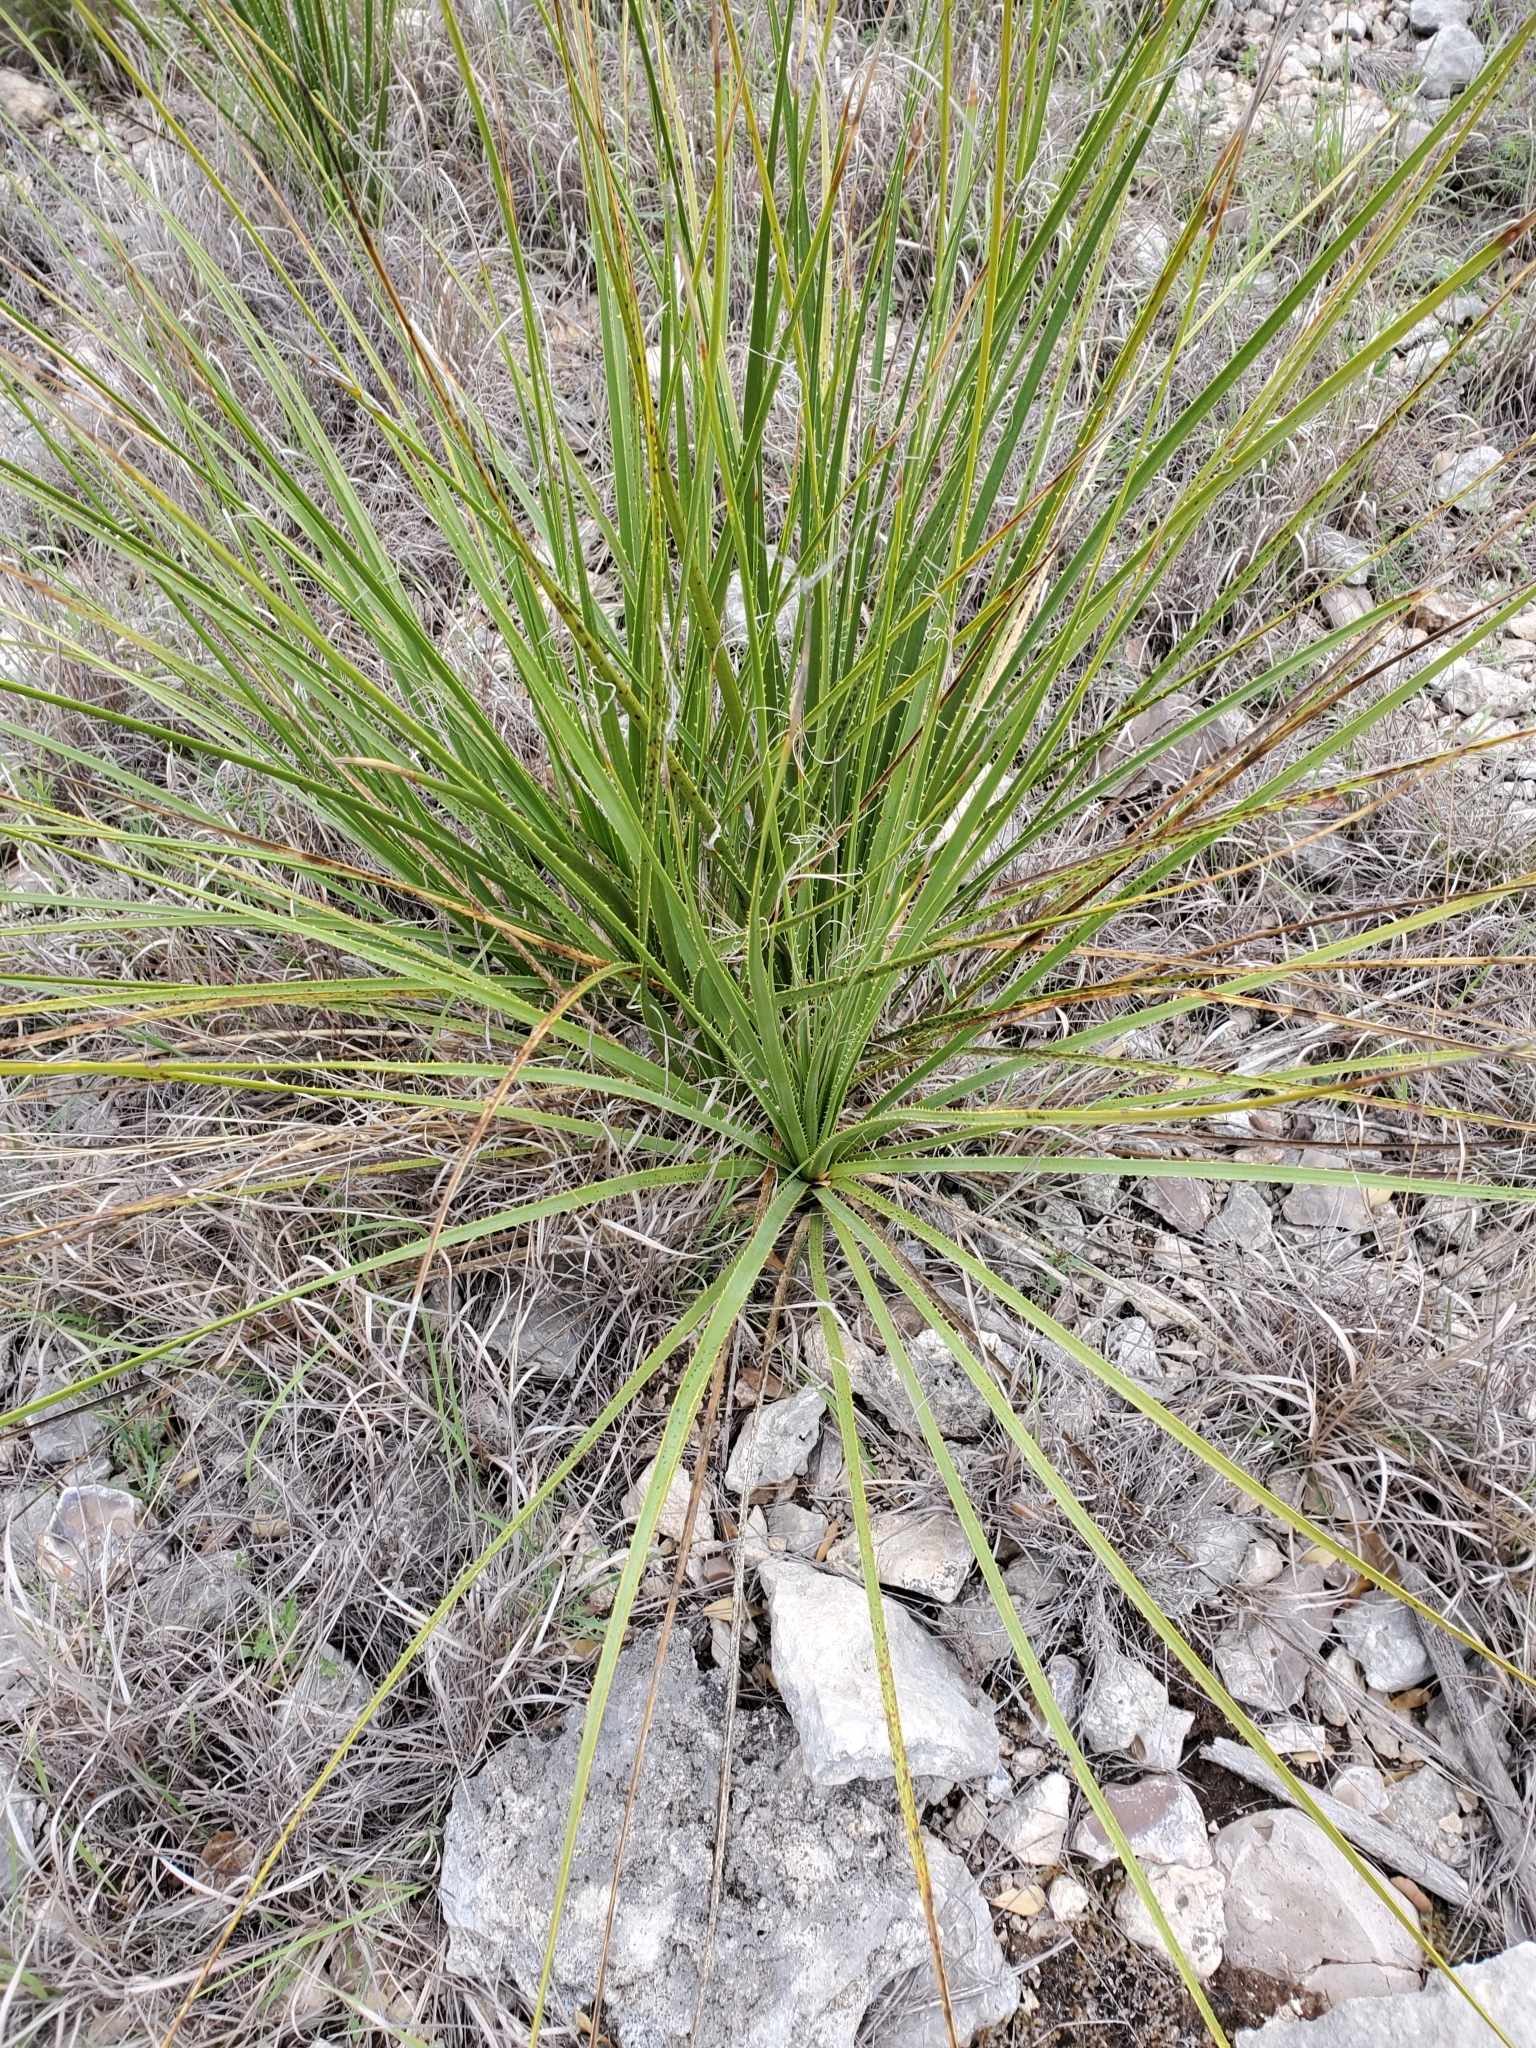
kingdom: Plantae
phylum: Tracheophyta
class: Liliopsida
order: Asparagales
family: Asparagaceae
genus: Dasylirion
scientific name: Dasylirion texanum
